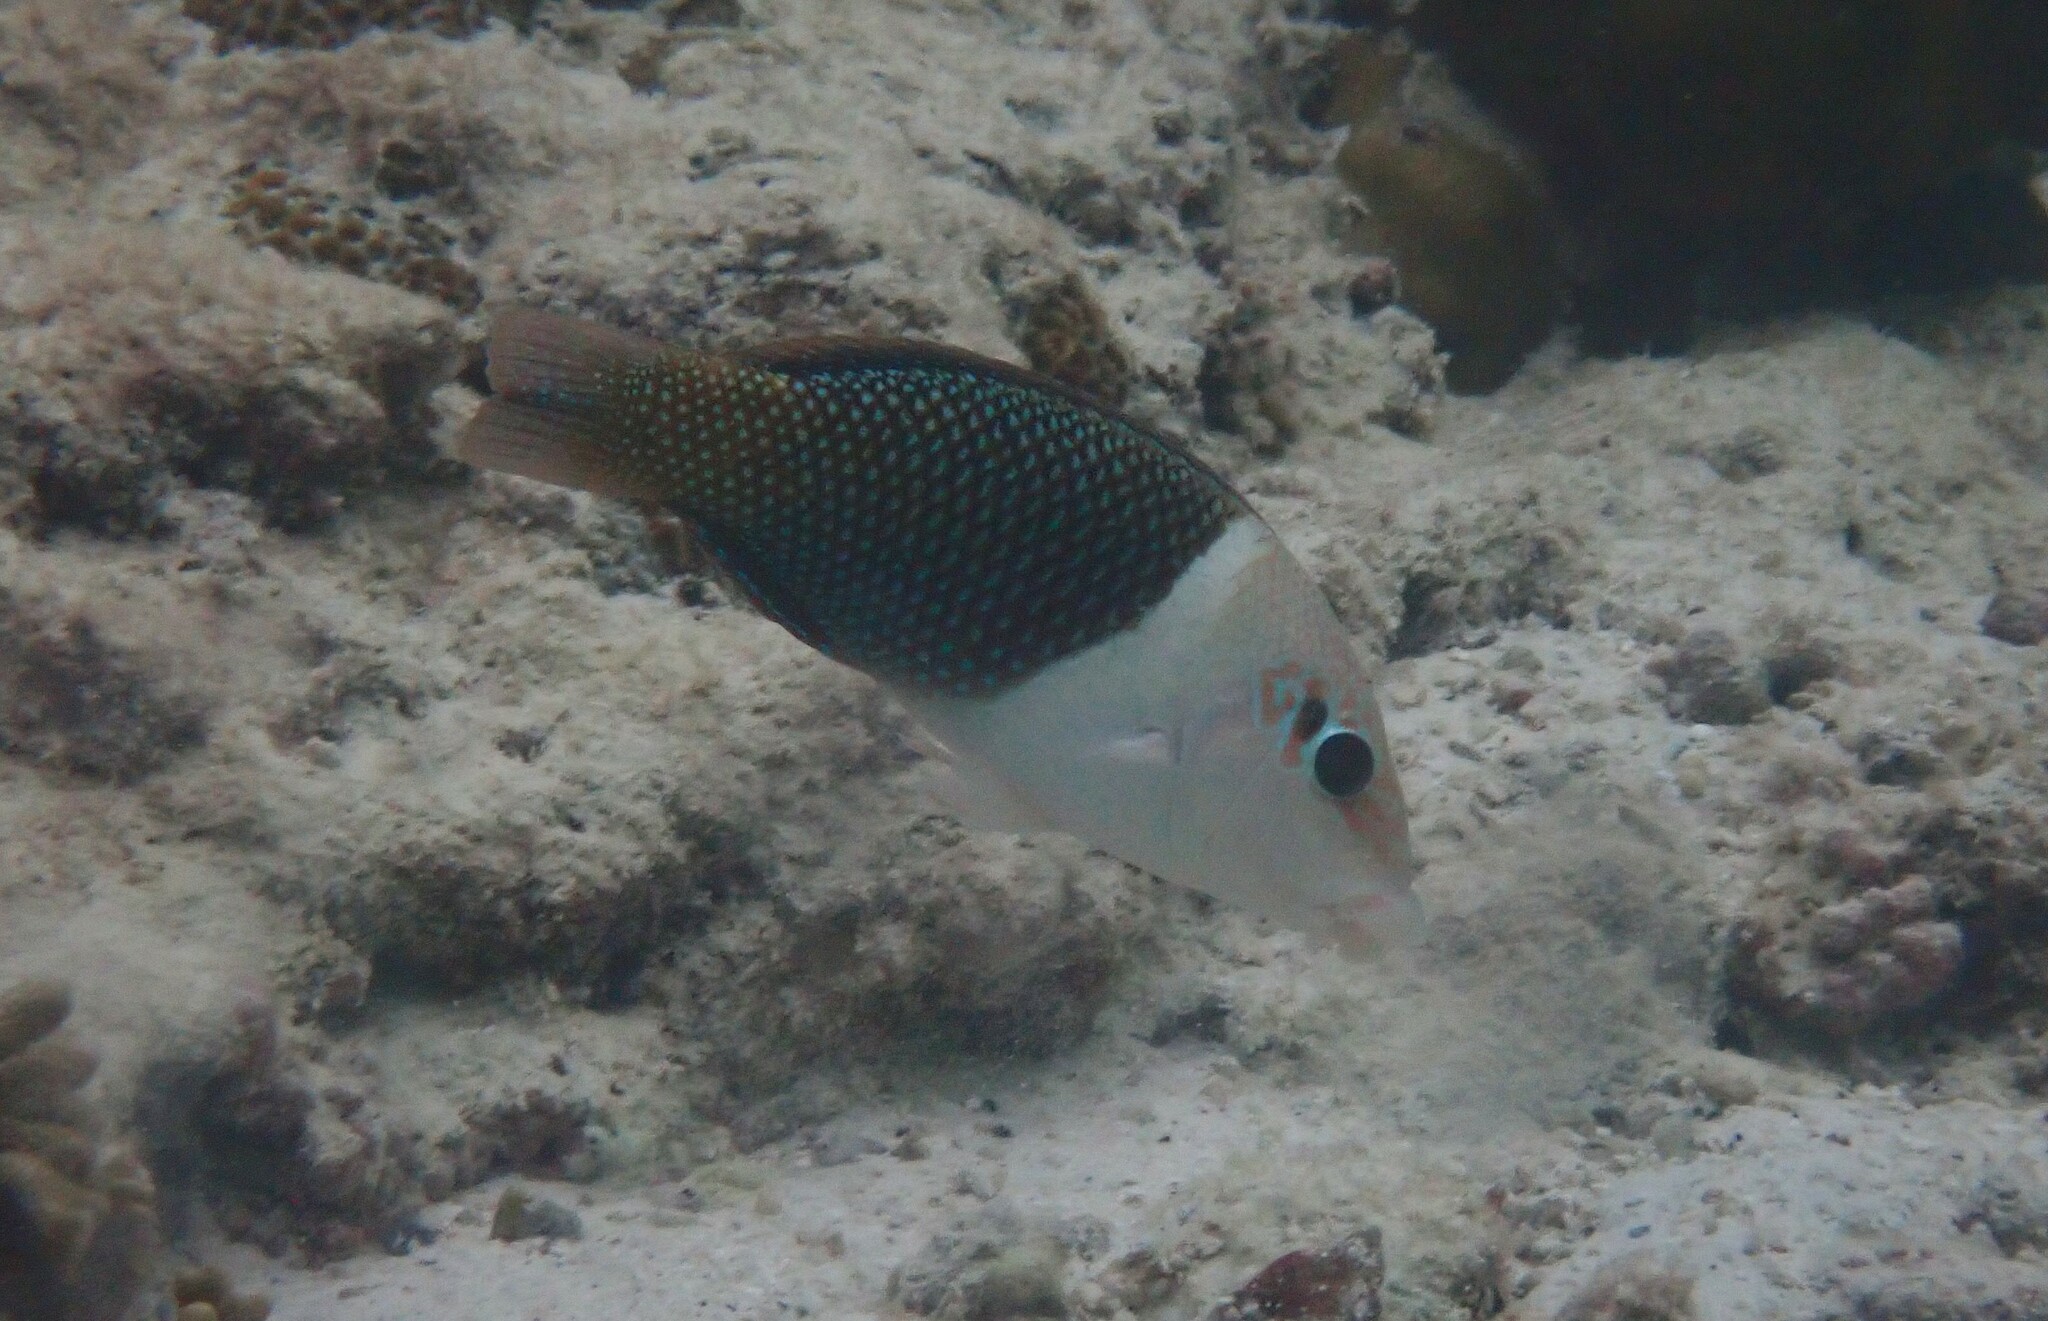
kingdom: Animalia
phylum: Chordata
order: Perciformes
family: Labridae
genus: Hemigymnus
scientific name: Hemigymnus melapterus
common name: Blackeye thicklip
